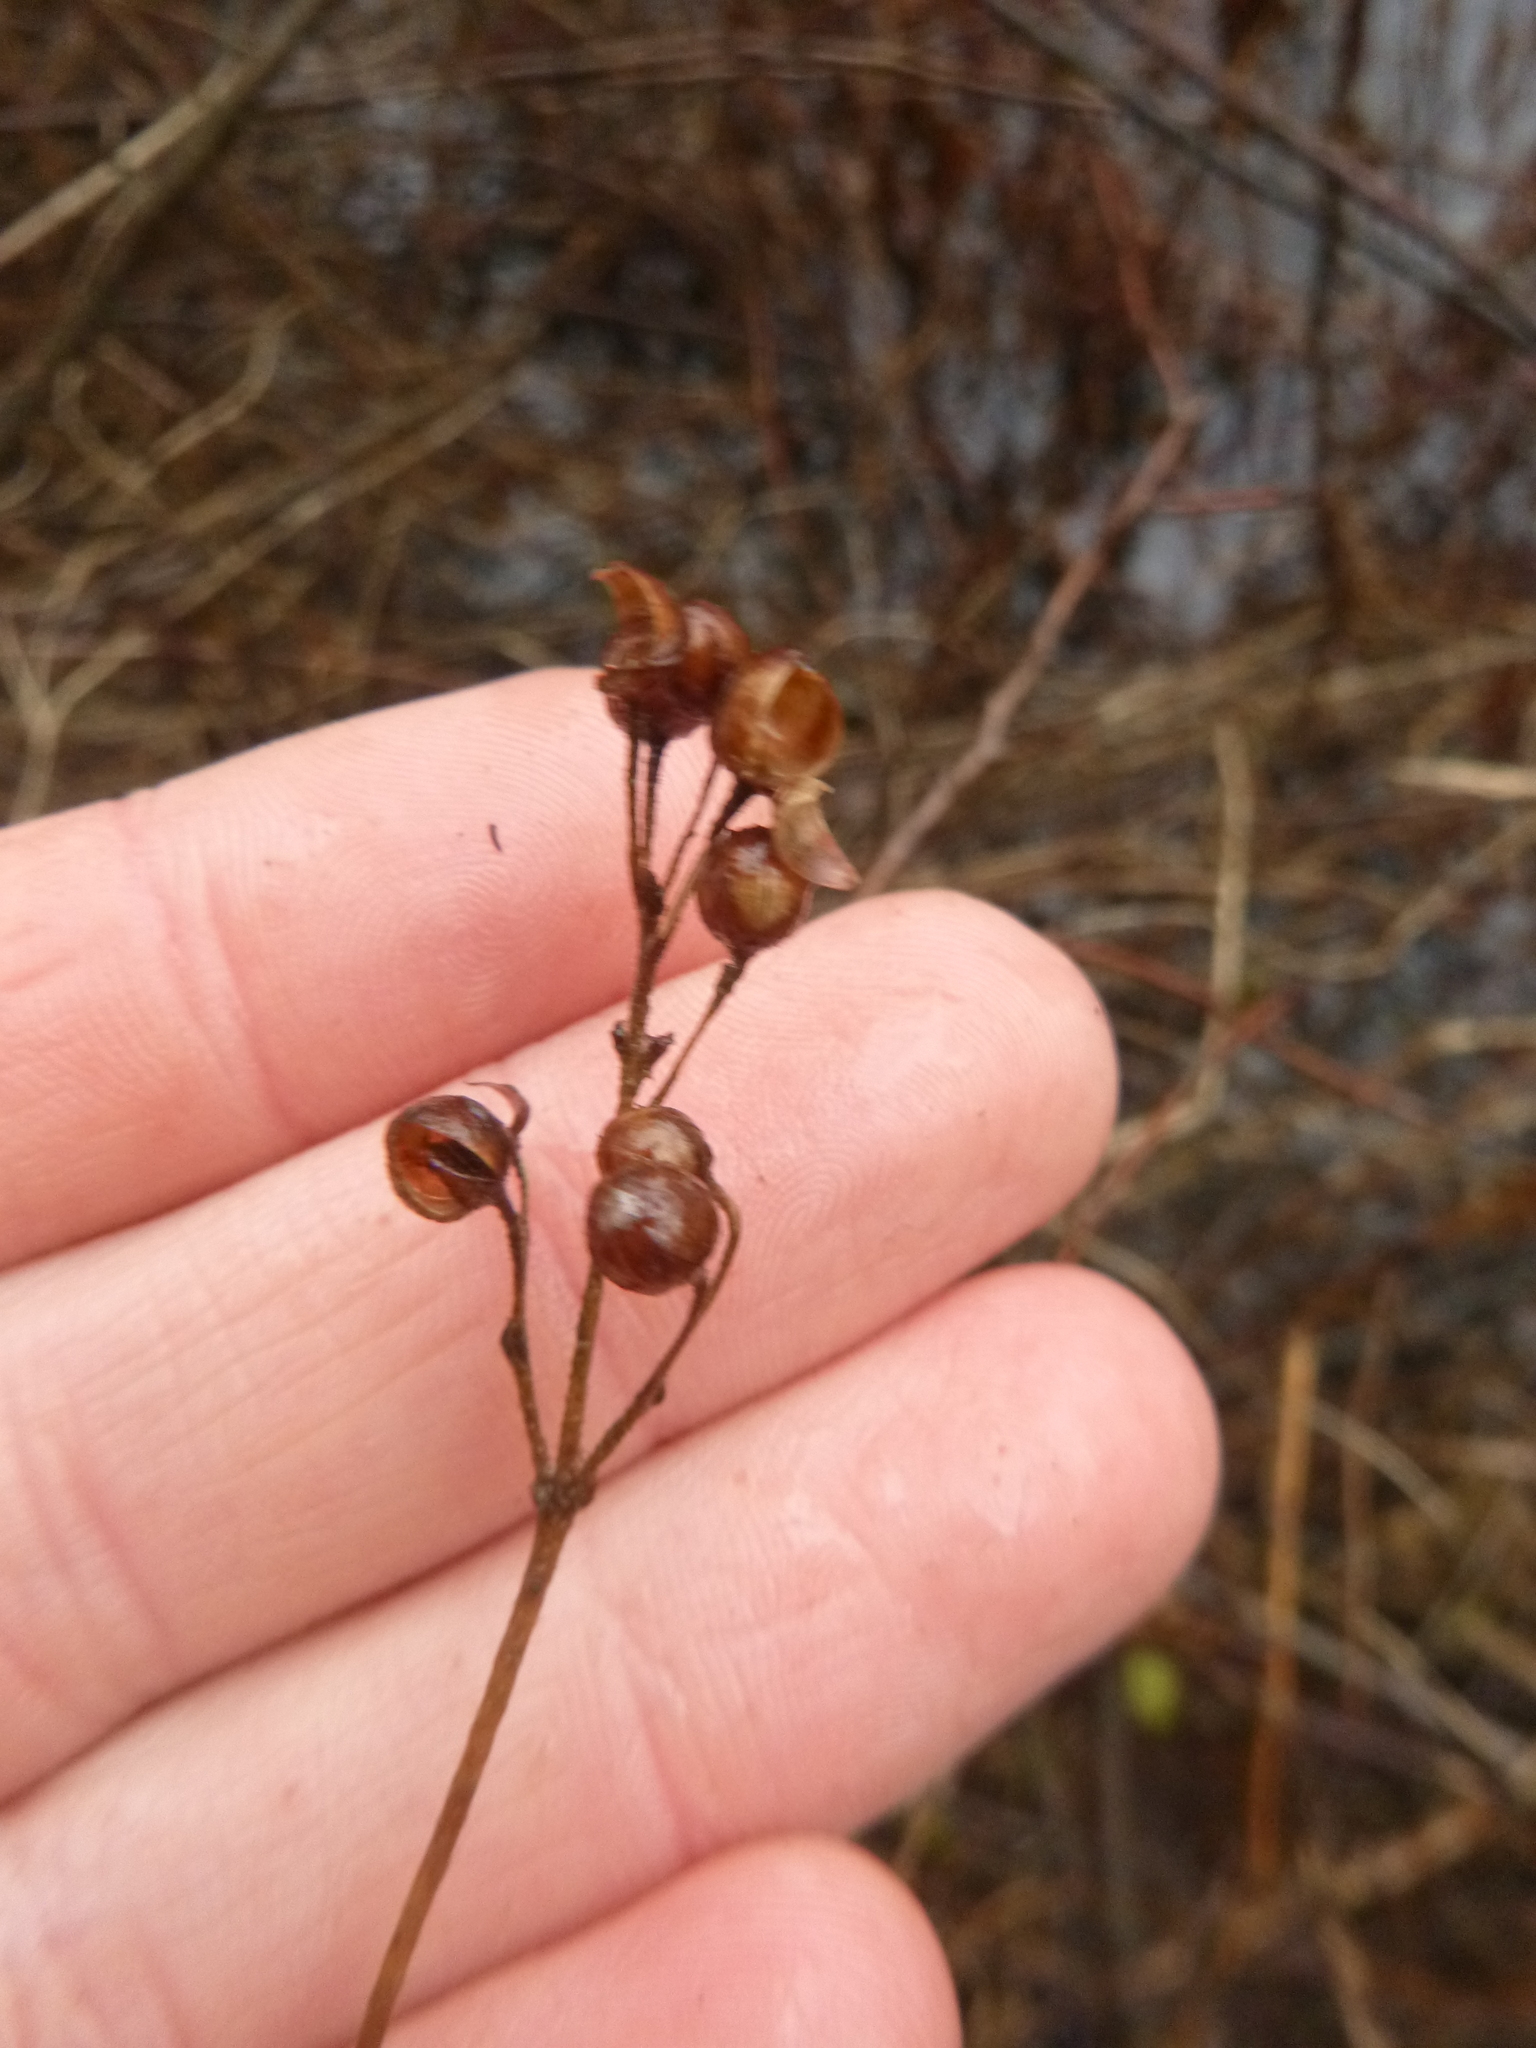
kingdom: Plantae
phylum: Tracheophyta
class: Magnoliopsida
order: Ericales
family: Primulaceae
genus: Lysimachia
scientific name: Lysimachia vulgaris
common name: Yellow loosestrife
